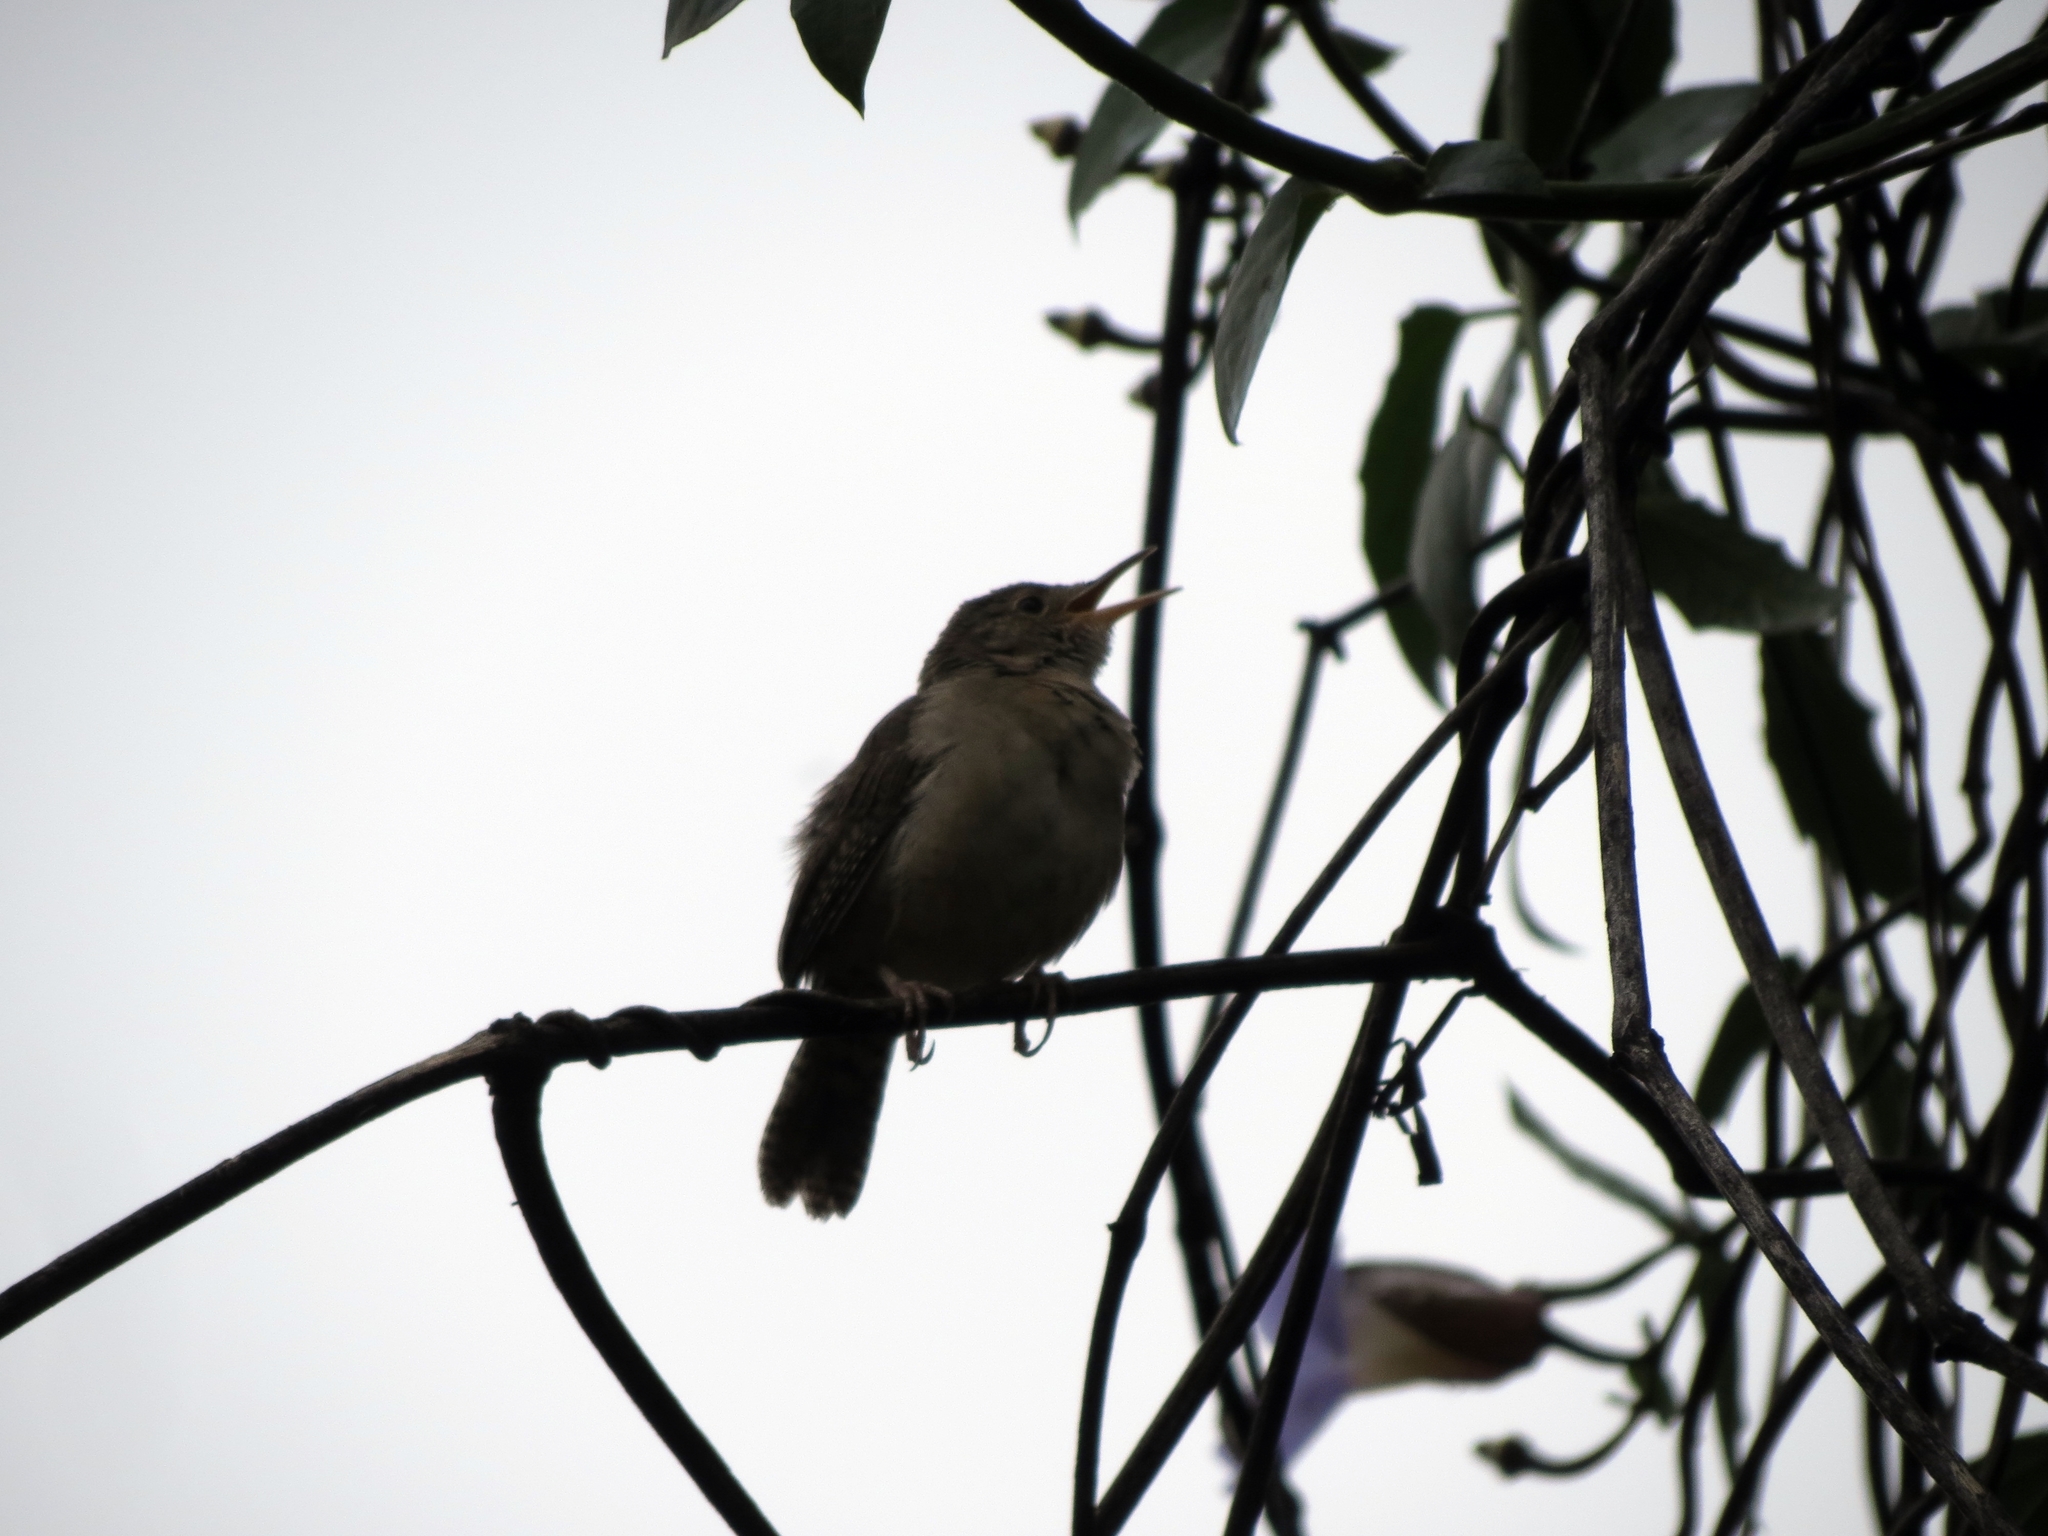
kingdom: Animalia
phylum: Chordata
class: Aves
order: Passeriformes
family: Troglodytidae
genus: Troglodytes
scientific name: Troglodytes aedon
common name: House wren
